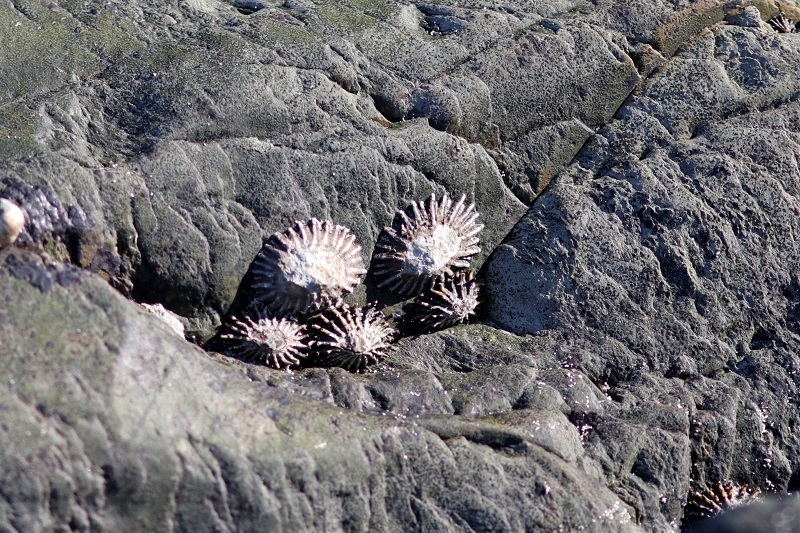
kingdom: Animalia
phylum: Mollusca
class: Gastropoda
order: Siphonariida
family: Siphonariidae
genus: Siphonaria
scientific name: Siphonaria serrata
